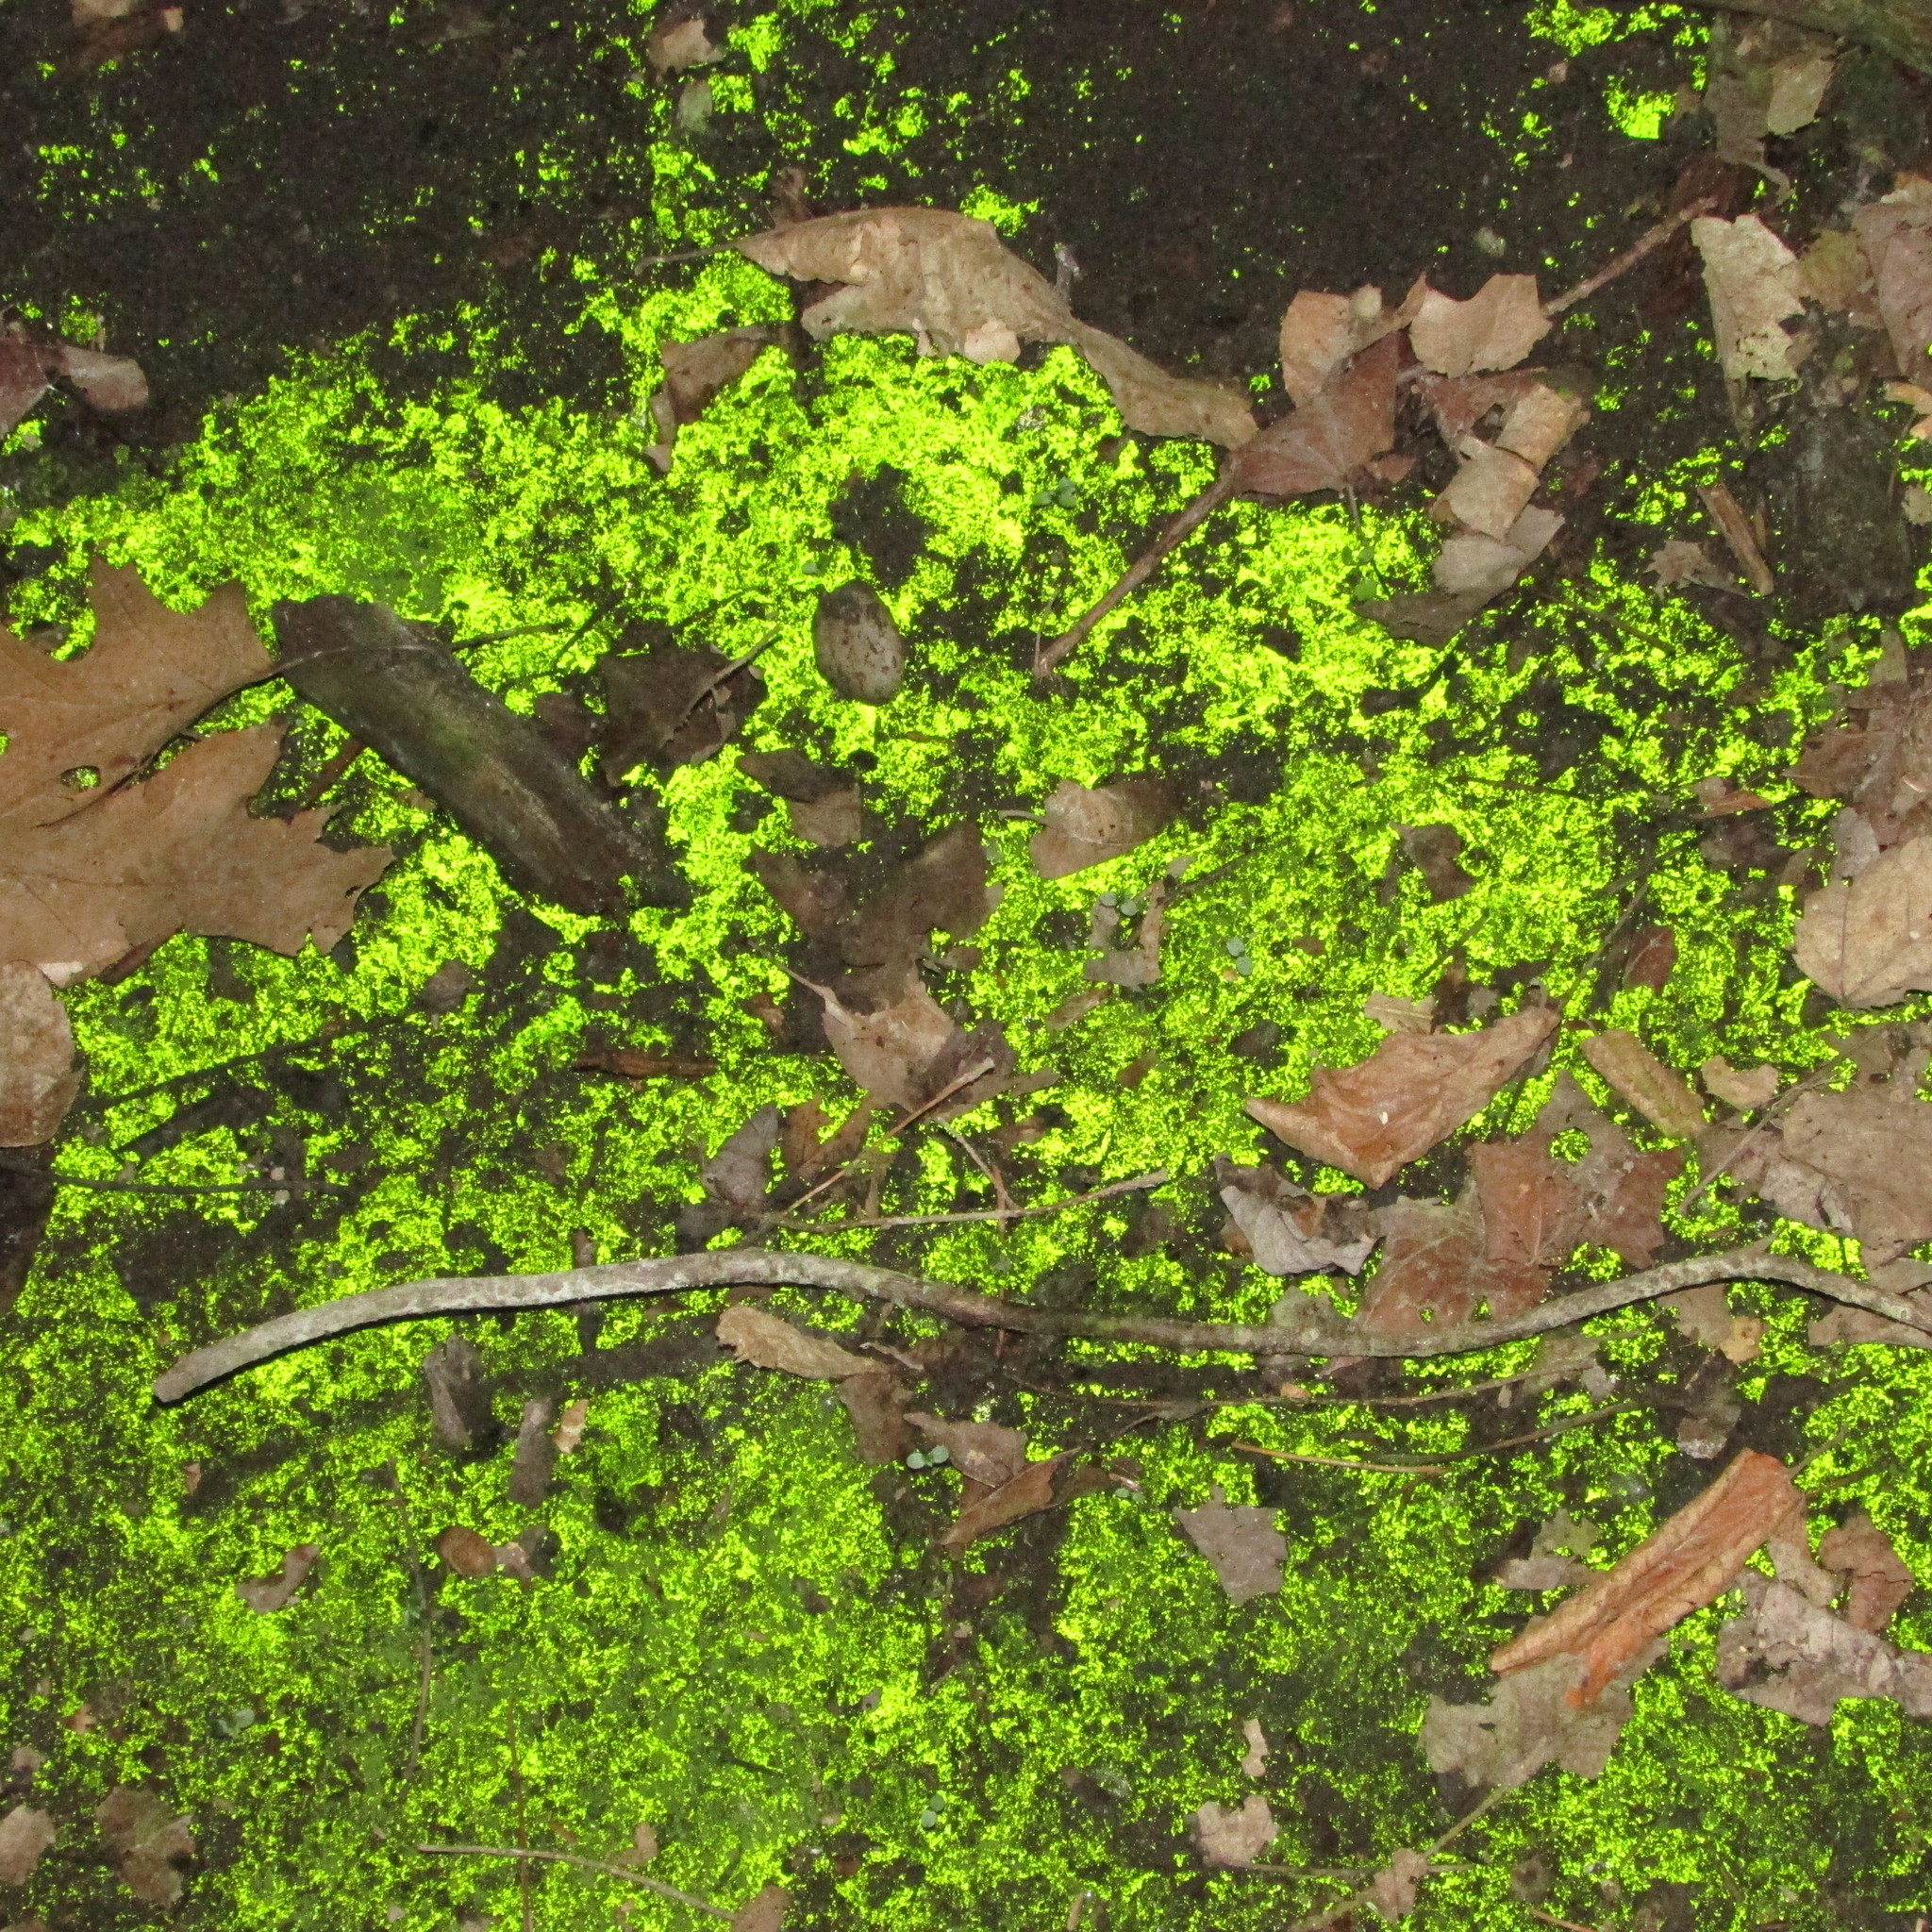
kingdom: Plantae
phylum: Bryophyta
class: Bryopsida
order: Dicranales
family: Schistostegaceae
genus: Schistostega
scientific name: Schistostega pennata
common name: Luminous moss
